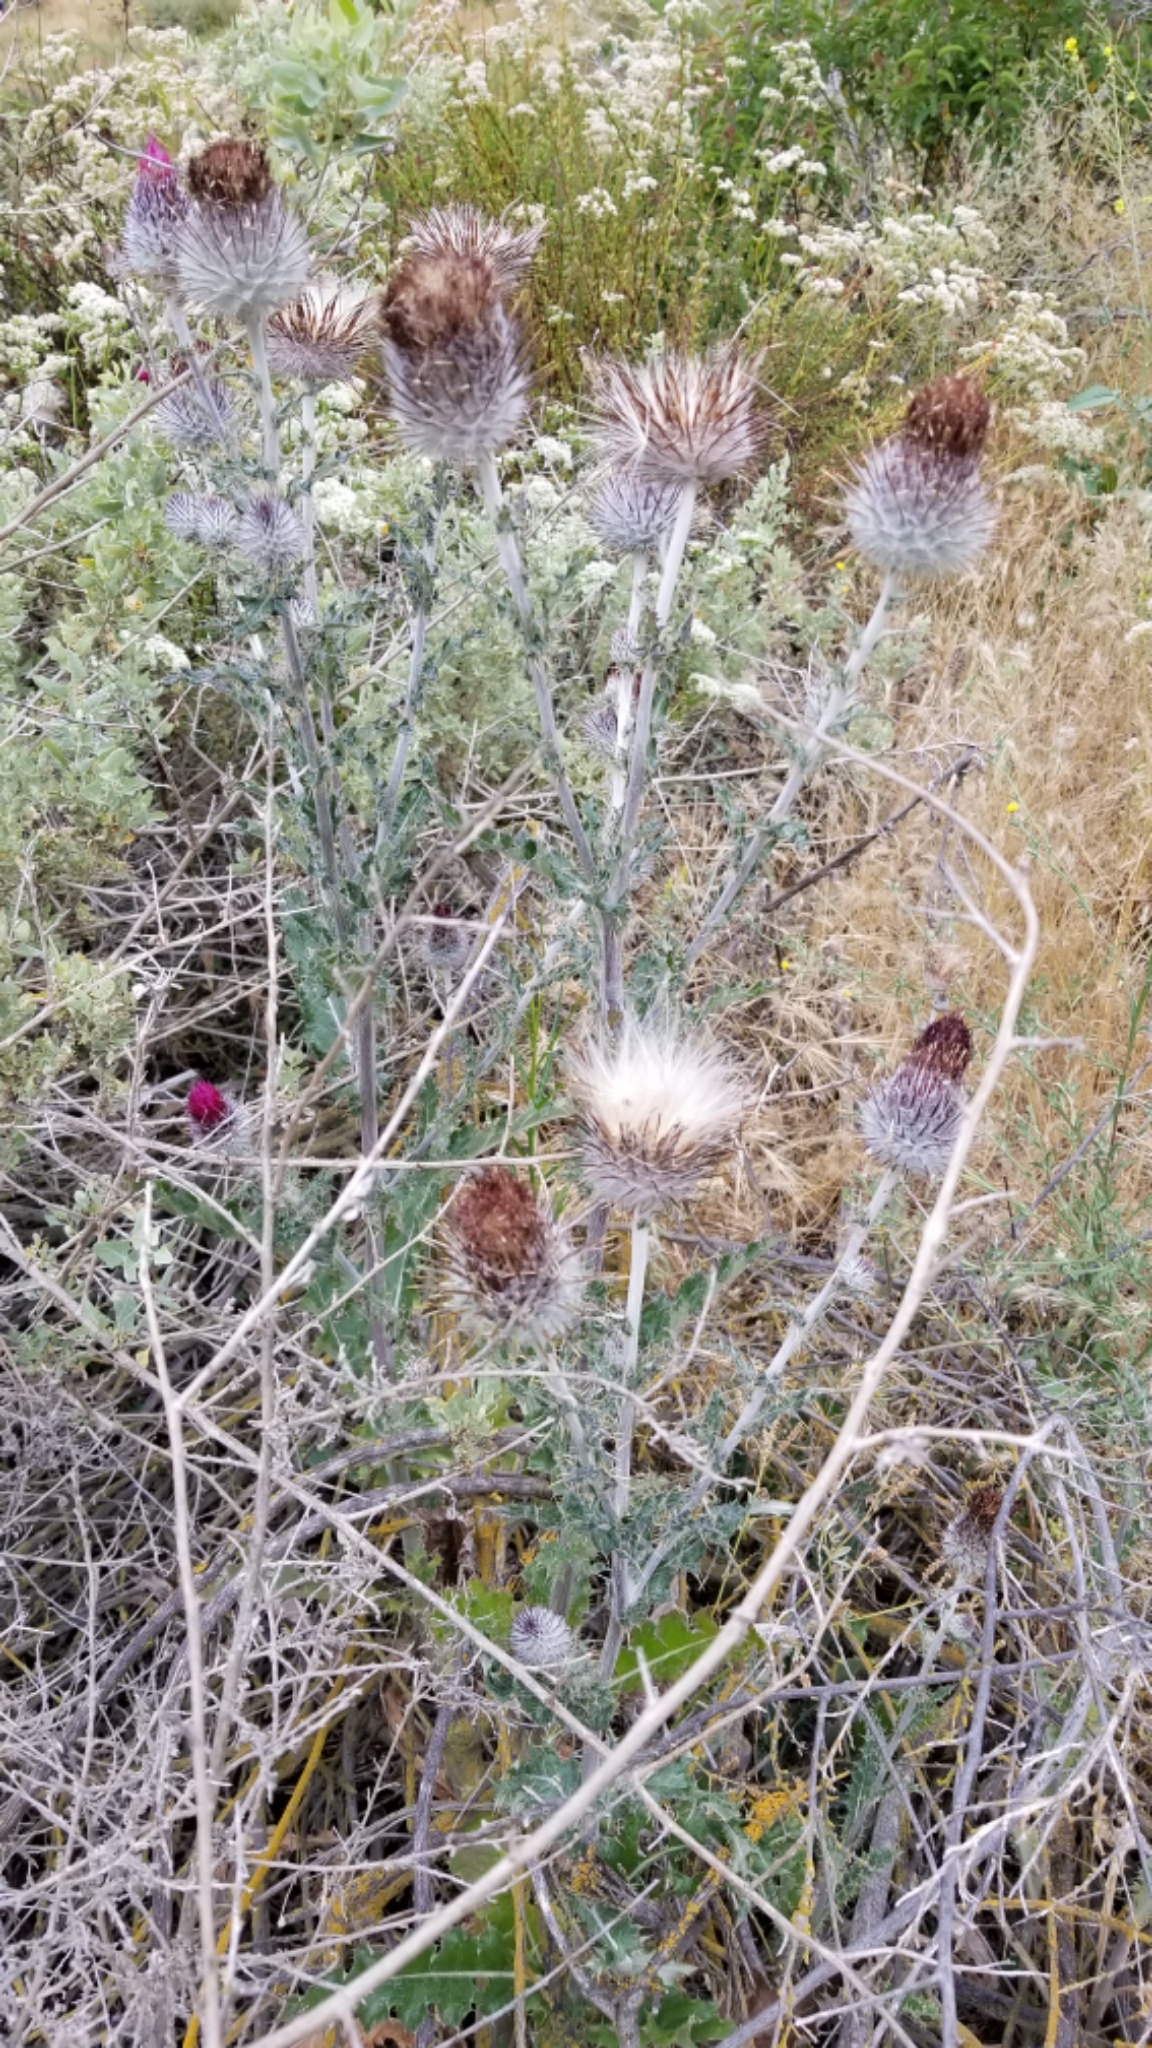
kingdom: Plantae
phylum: Tracheophyta
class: Magnoliopsida
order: Asterales
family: Asteraceae
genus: Cirsium
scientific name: Cirsium occidentale
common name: Western thistle
